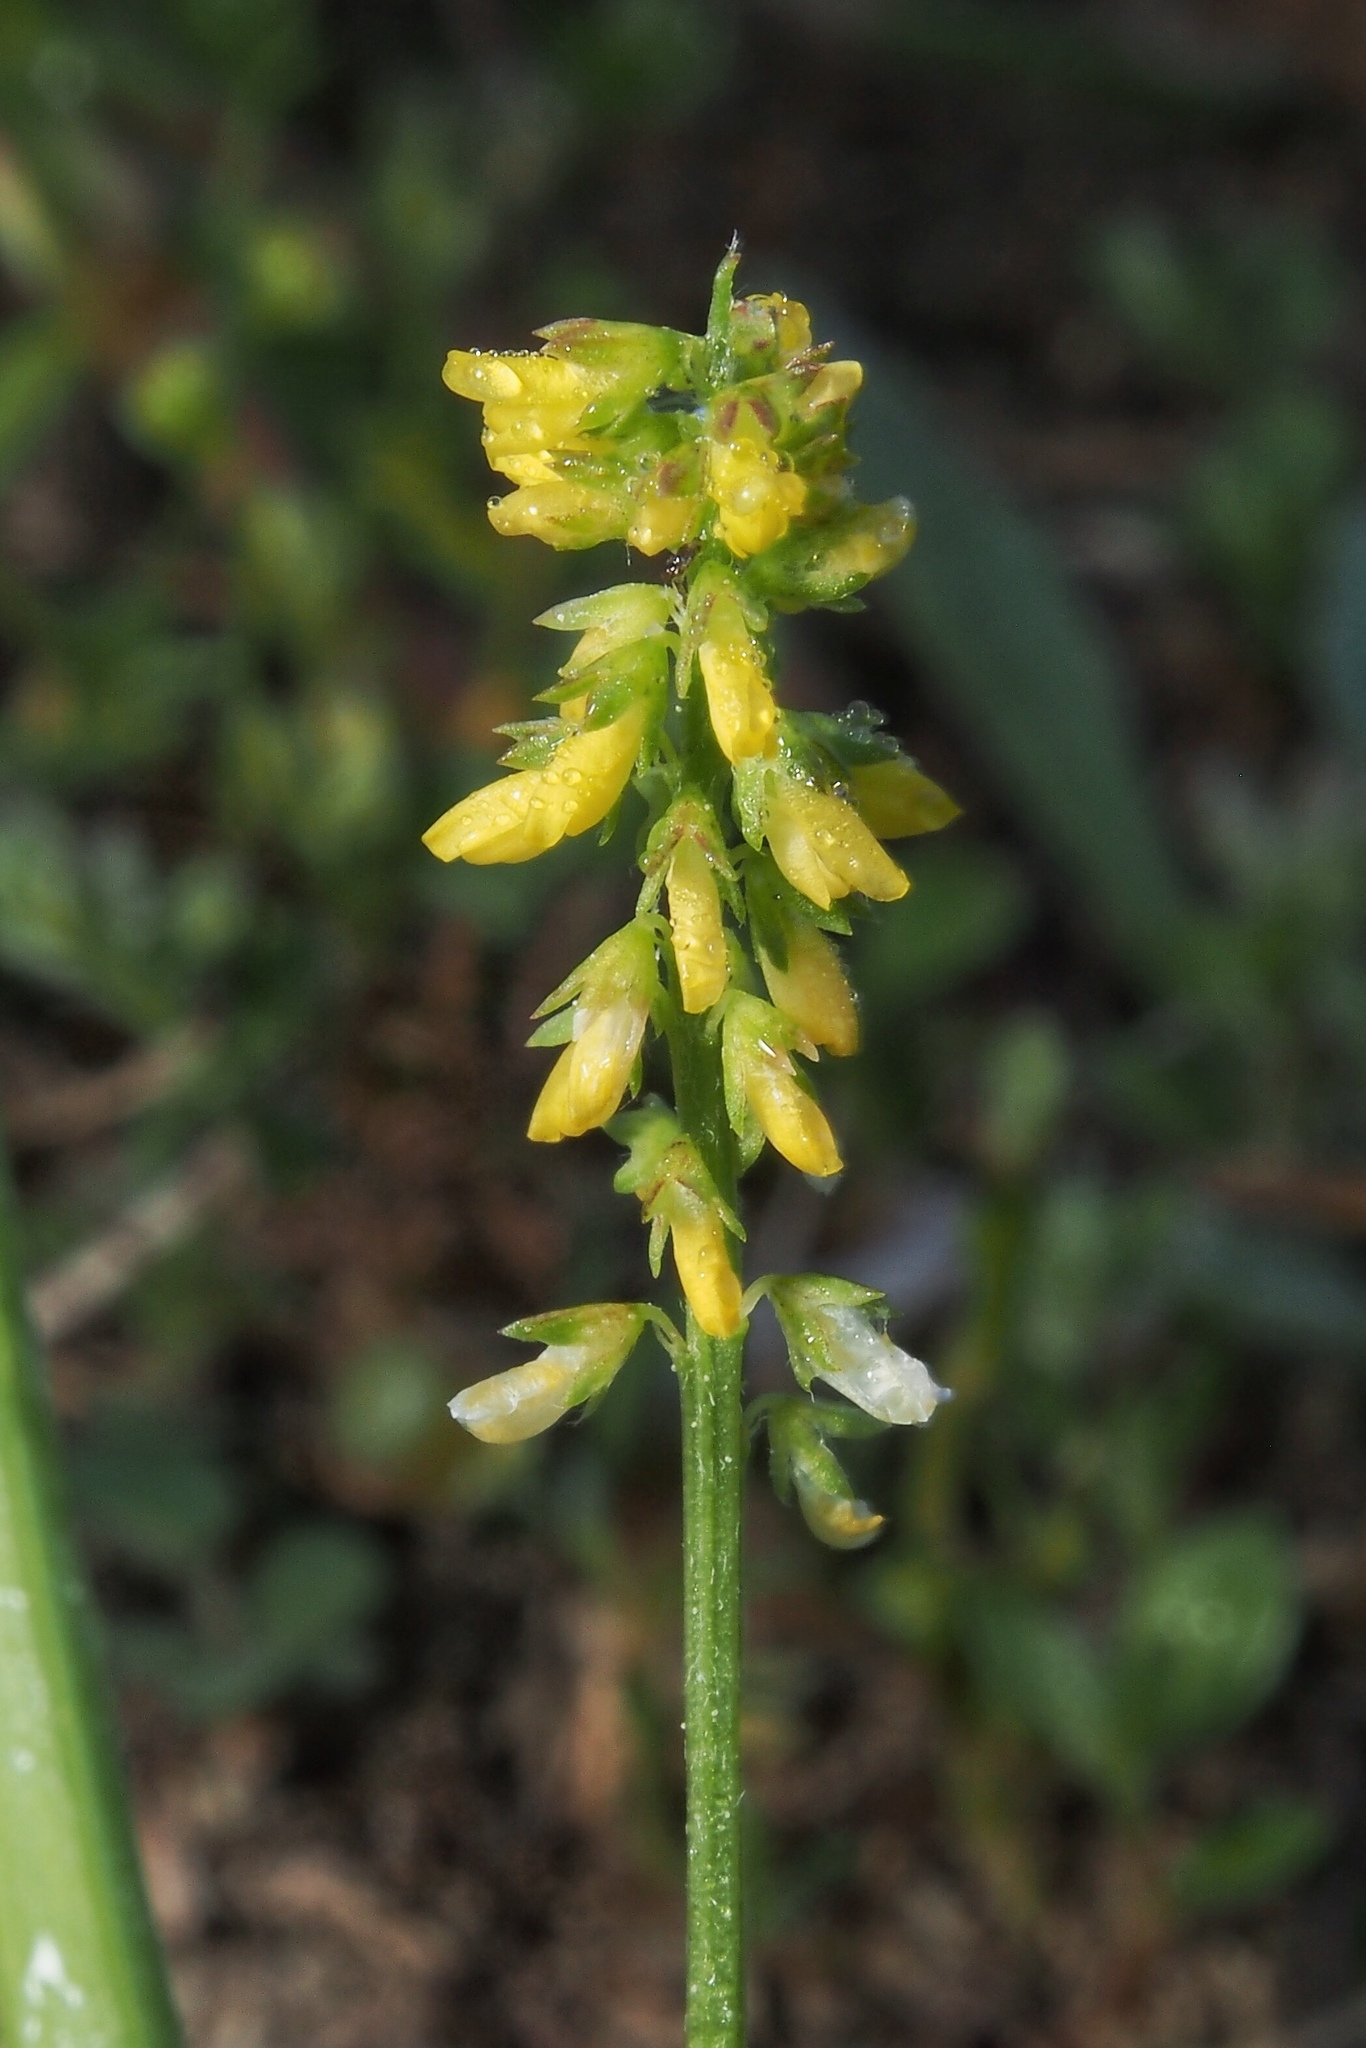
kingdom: Plantae
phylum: Tracheophyta
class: Magnoliopsida
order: Fabales
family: Fabaceae
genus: Melilotus
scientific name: Melilotus indicus
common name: Small melilot
